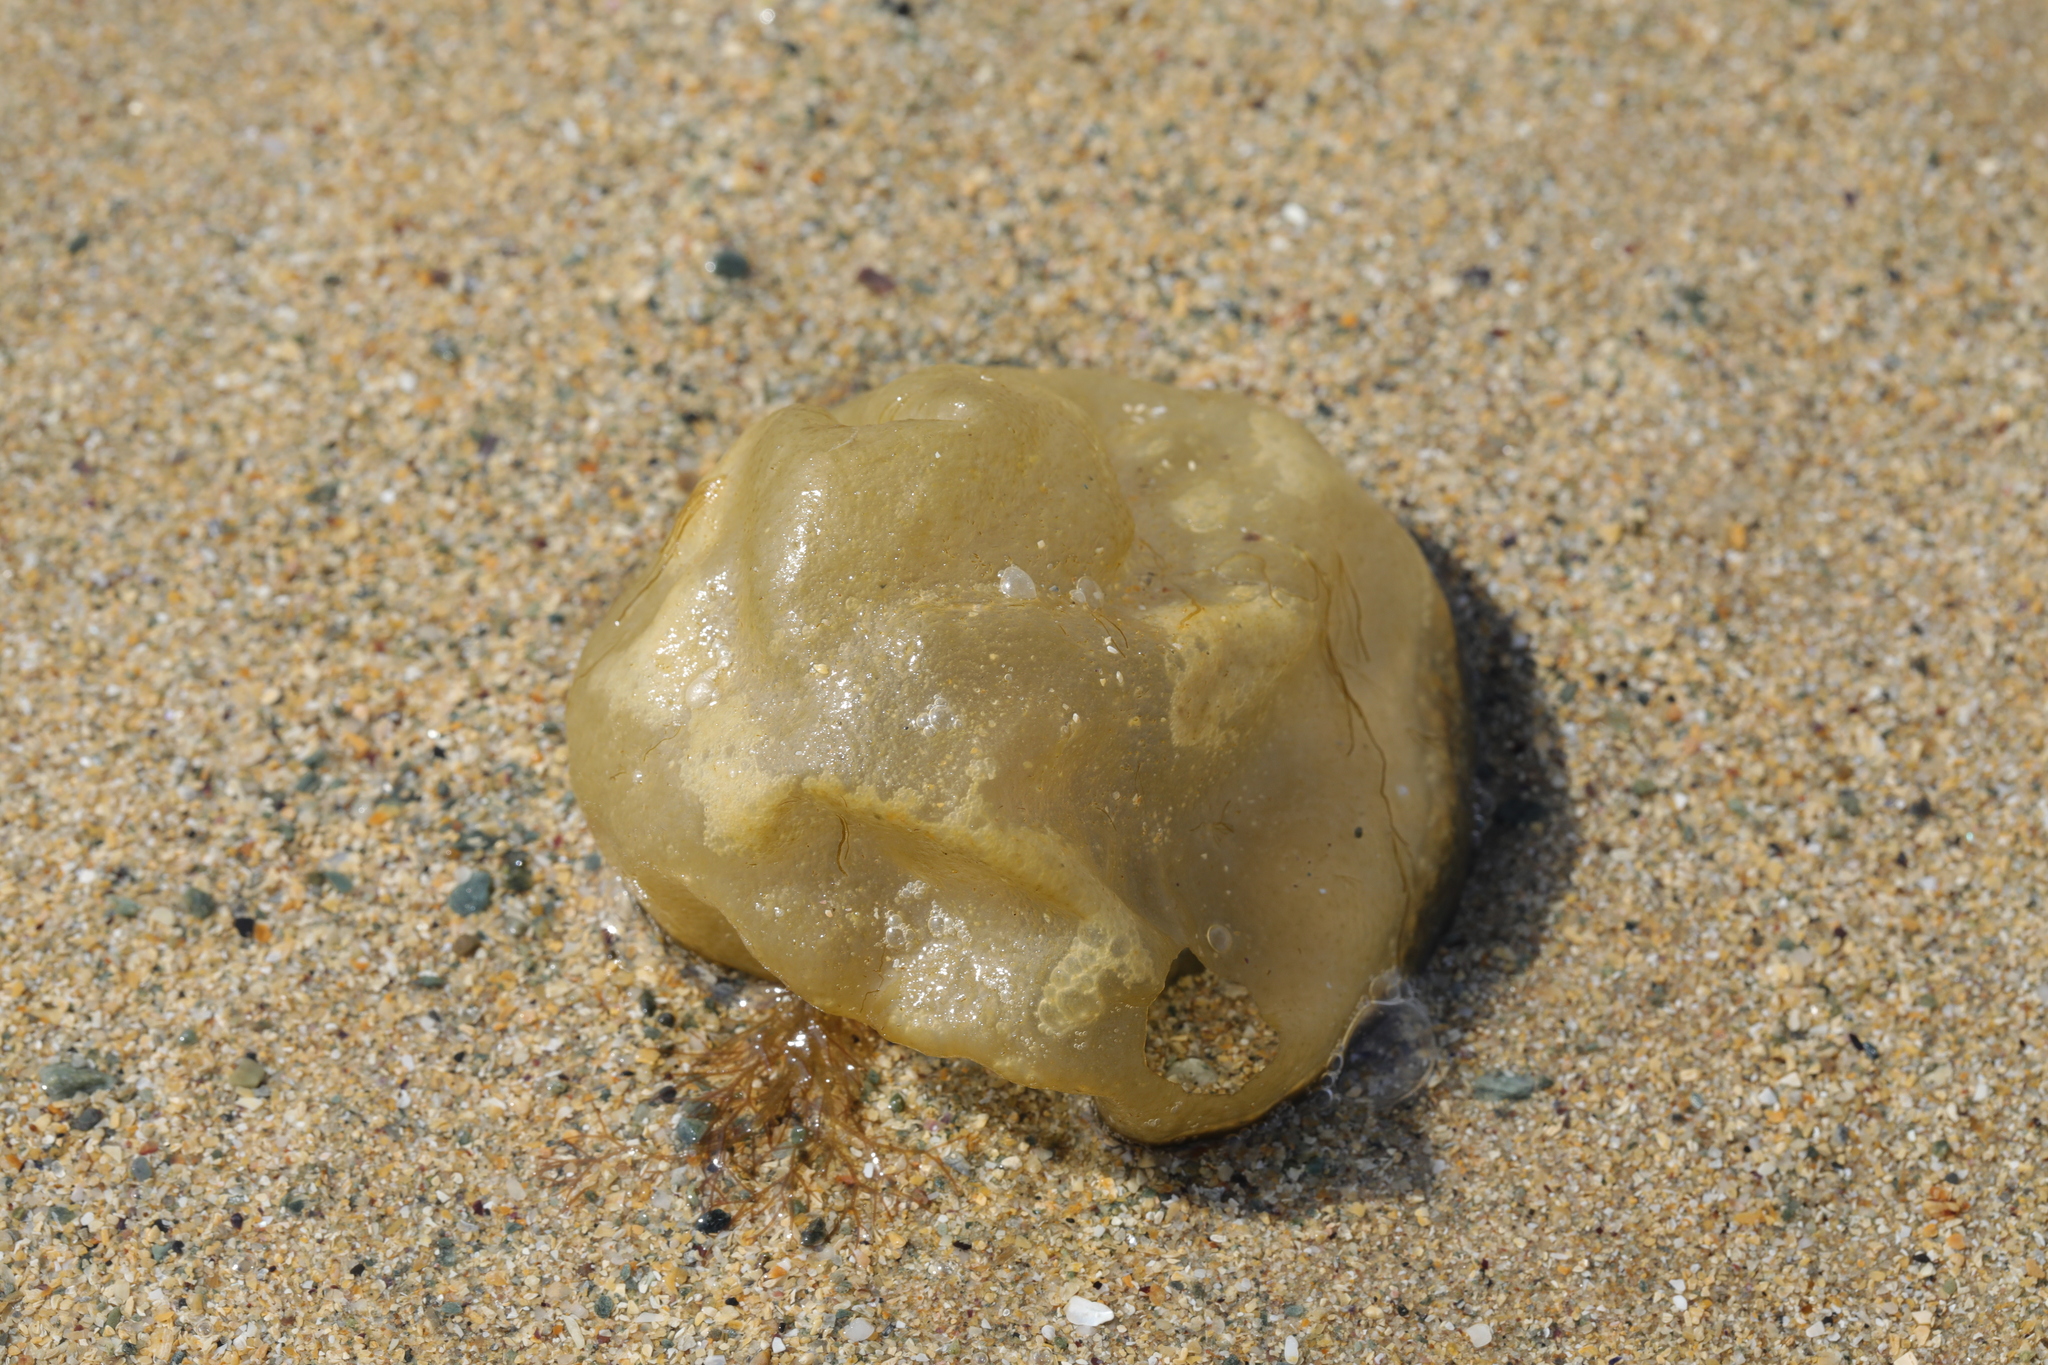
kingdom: Chromista
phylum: Ochrophyta
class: Phaeophyceae
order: Scytosiphonales
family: Scytosiphonaceae
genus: Colpomenia
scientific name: Colpomenia peregrina
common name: Oyster thief
